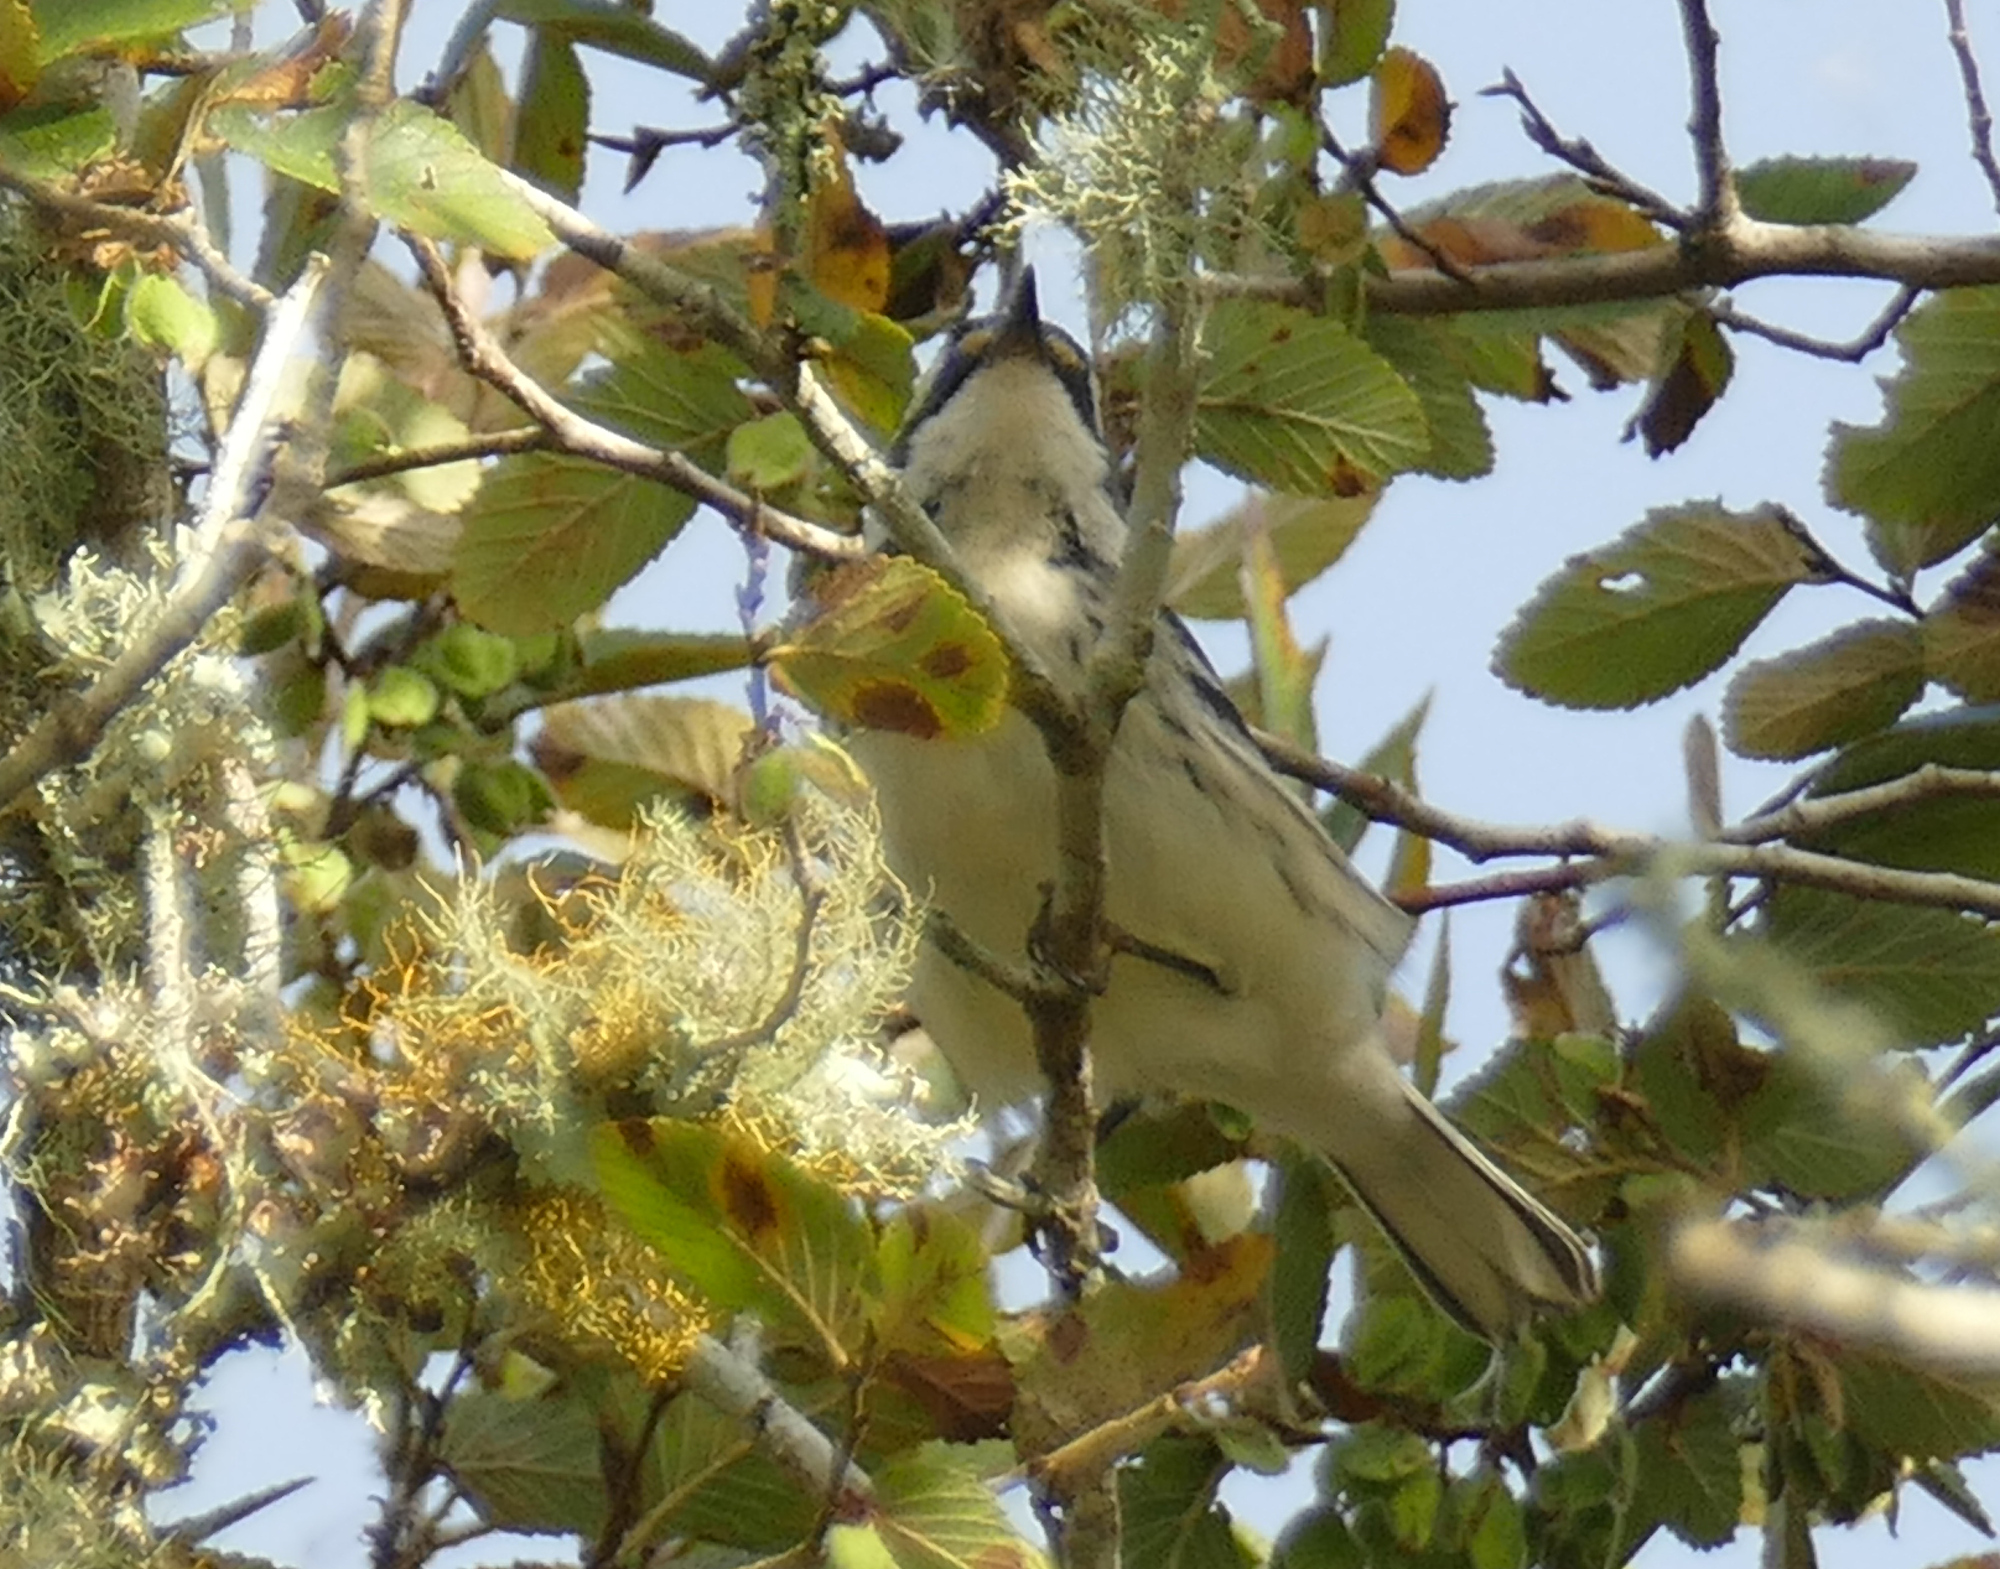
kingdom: Animalia
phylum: Chordata
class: Aves
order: Passeriformes
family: Parulidae
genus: Setophaga
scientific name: Setophaga nigrescens
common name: Black-throated gray warbler
